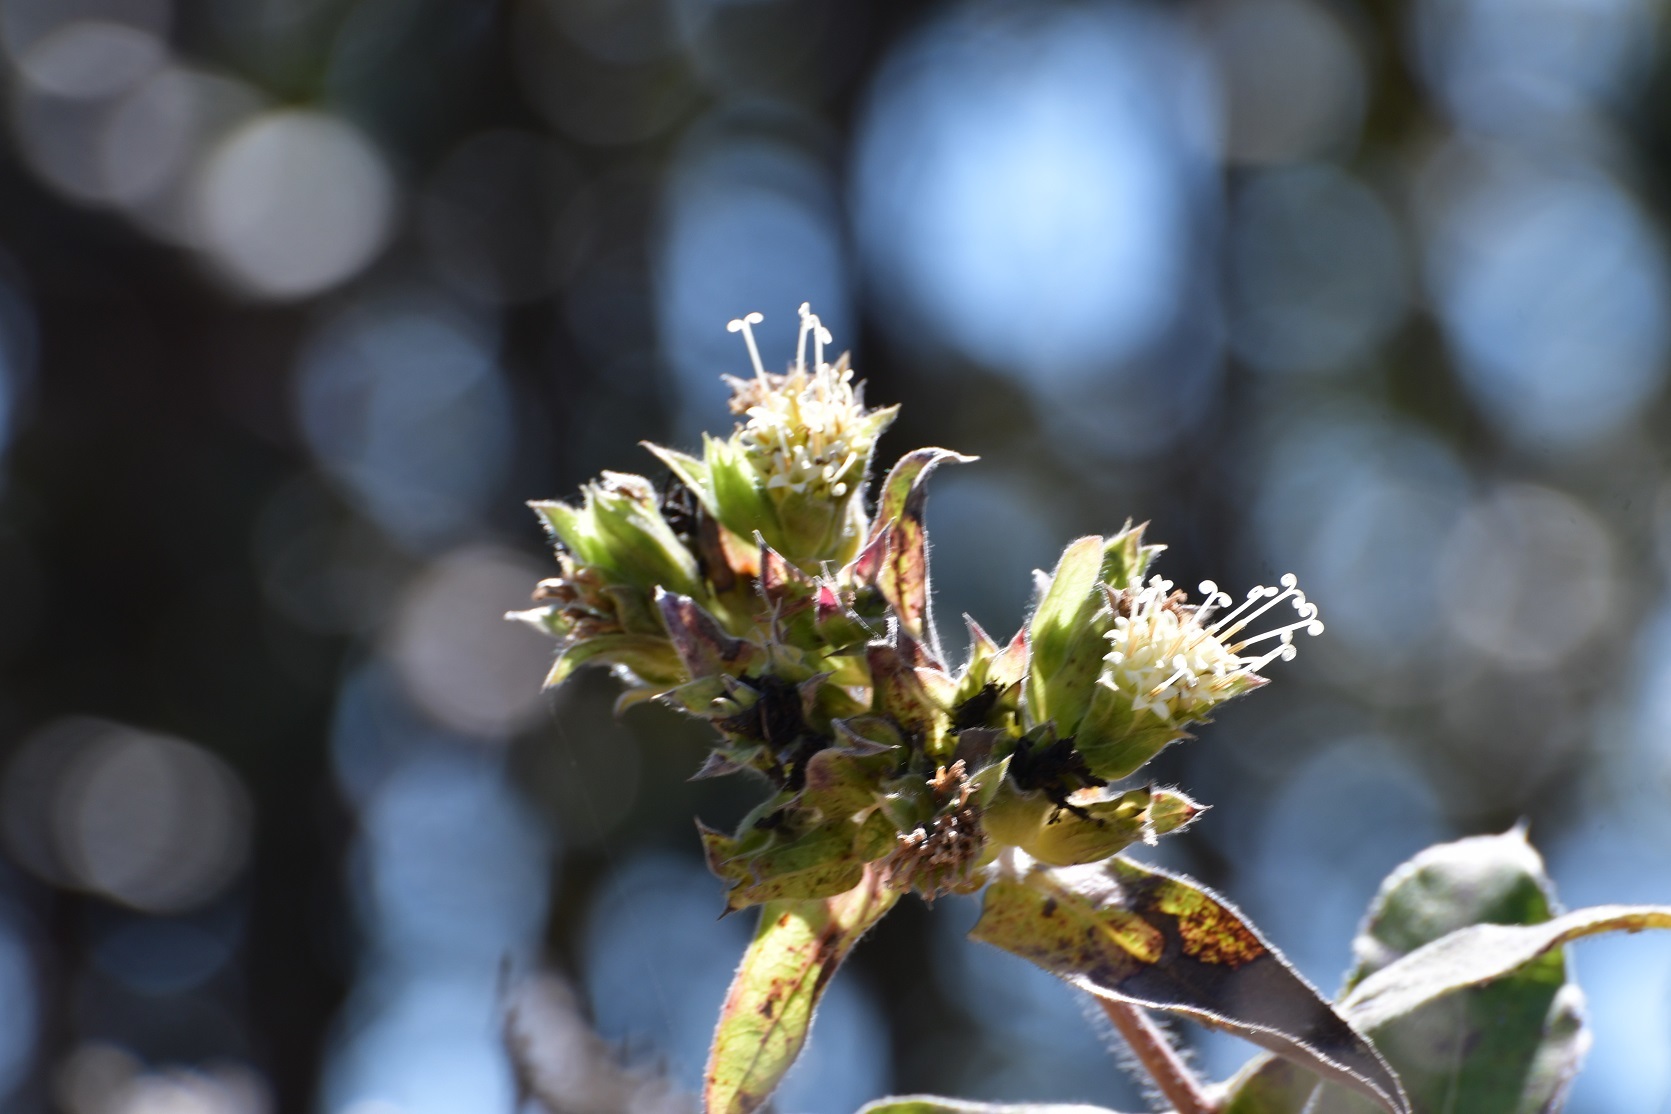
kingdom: Plantae
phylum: Tracheophyta
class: Magnoliopsida
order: Asterales
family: Asteraceae
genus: Lagascea
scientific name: Lagascea helianthifolia
